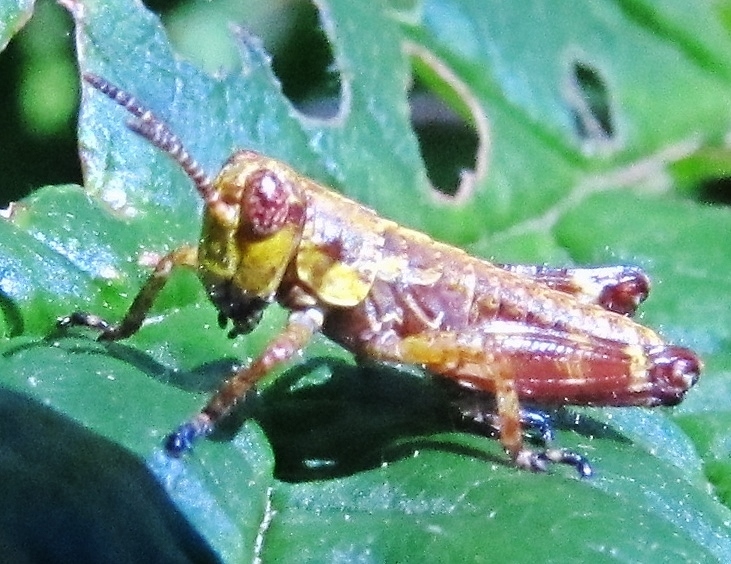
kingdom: Animalia
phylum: Arthropoda
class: Insecta
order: Orthoptera
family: Acrididae
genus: Booneacris
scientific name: Booneacris variegata
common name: Variegated wingless locust
